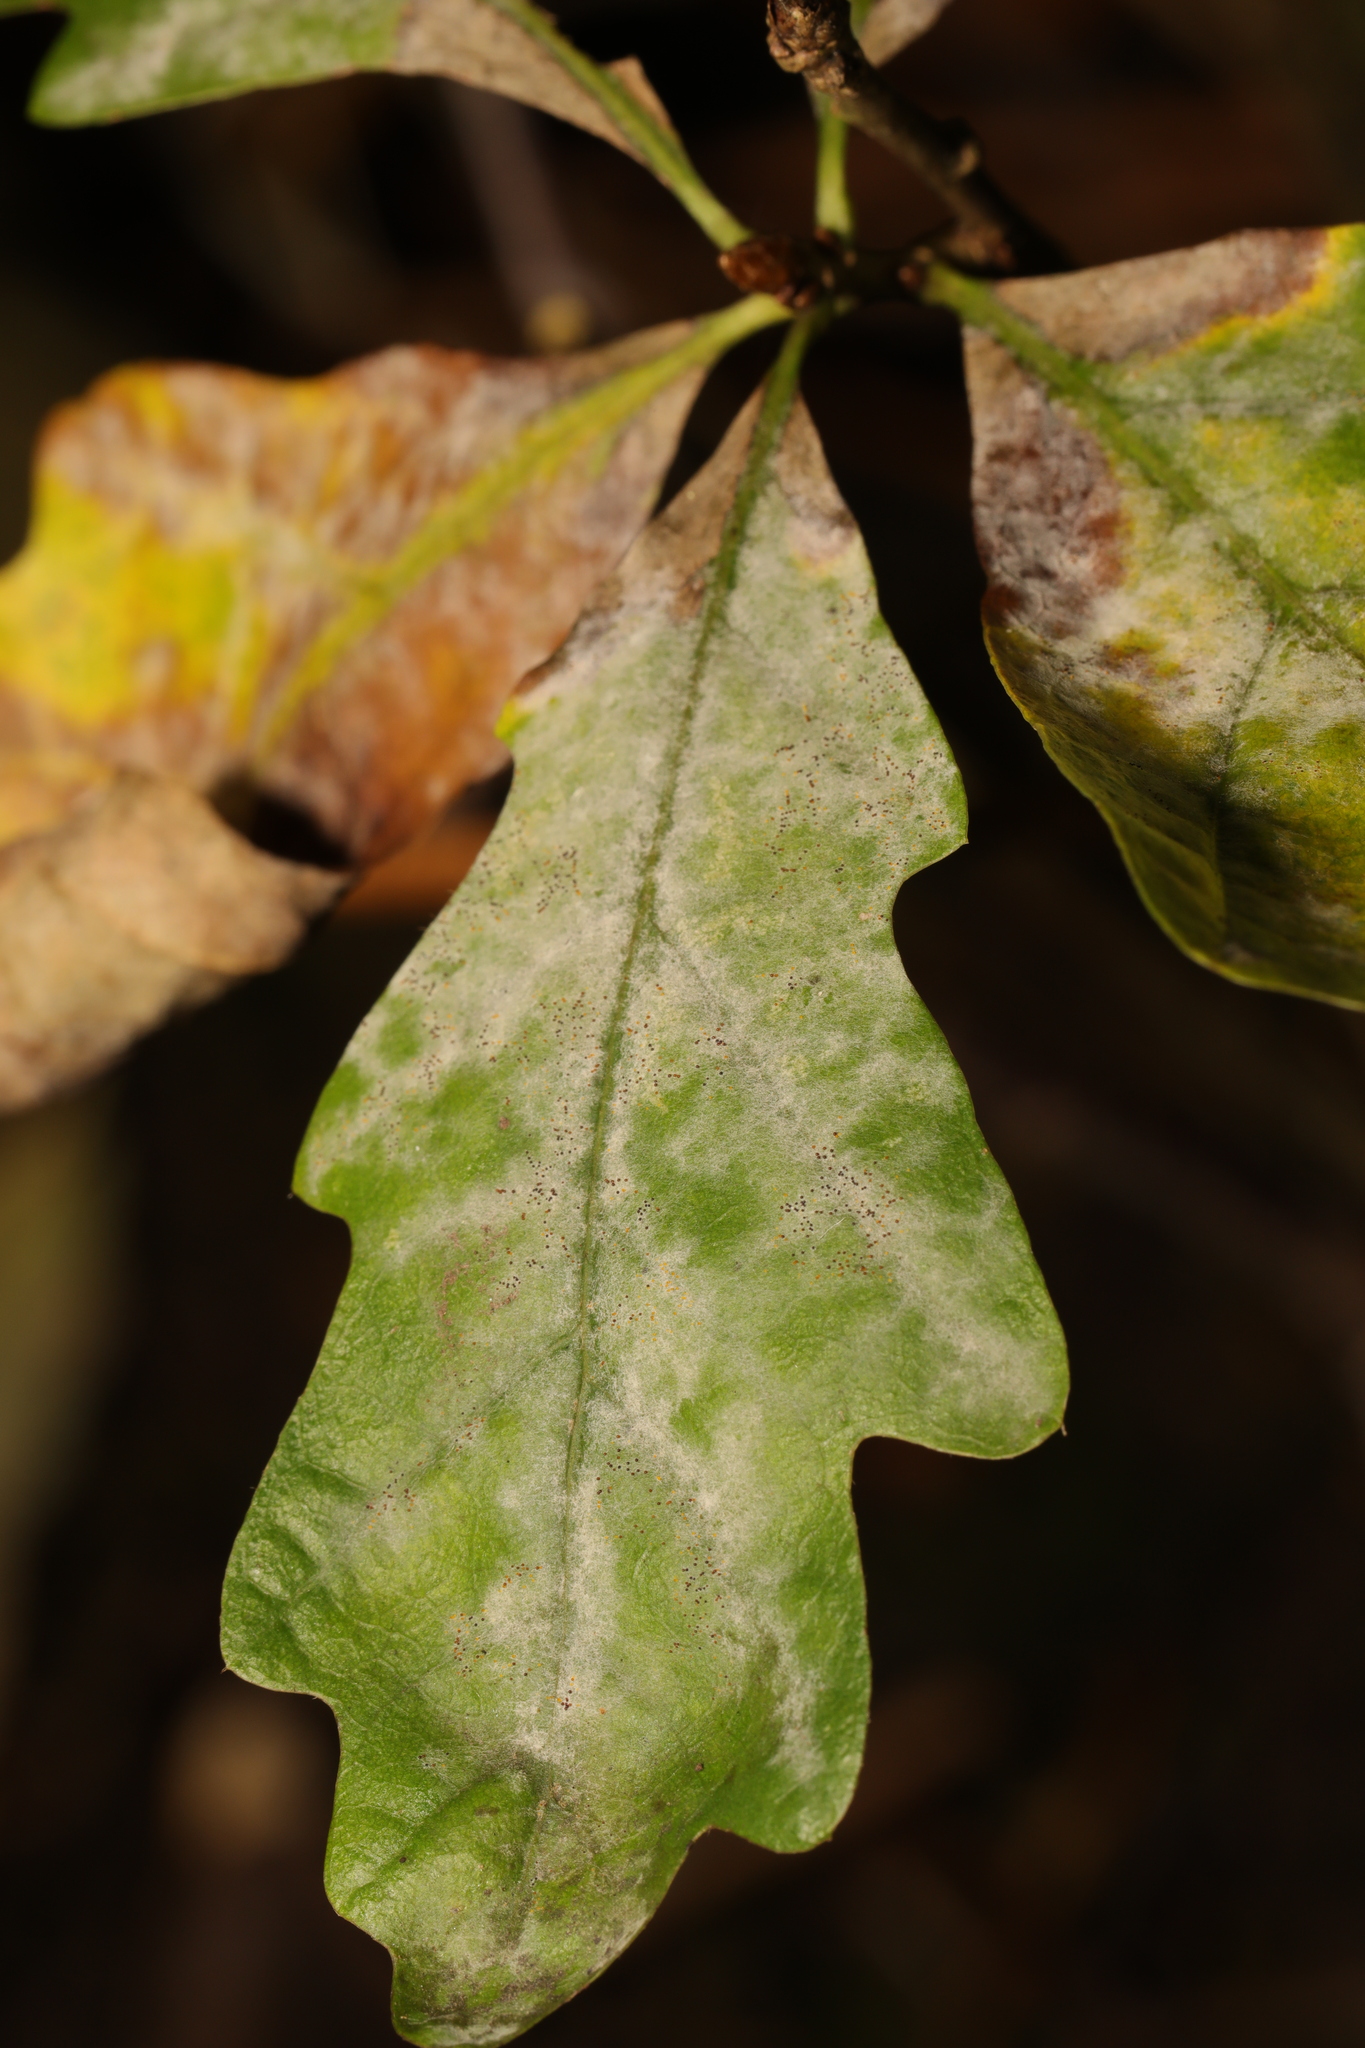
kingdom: Fungi
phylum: Ascomycota
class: Leotiomycetes
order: Helotiales
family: Erysiphaceae
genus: Erysiphe
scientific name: Erysiphe alphitoides
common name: Oak mildew
